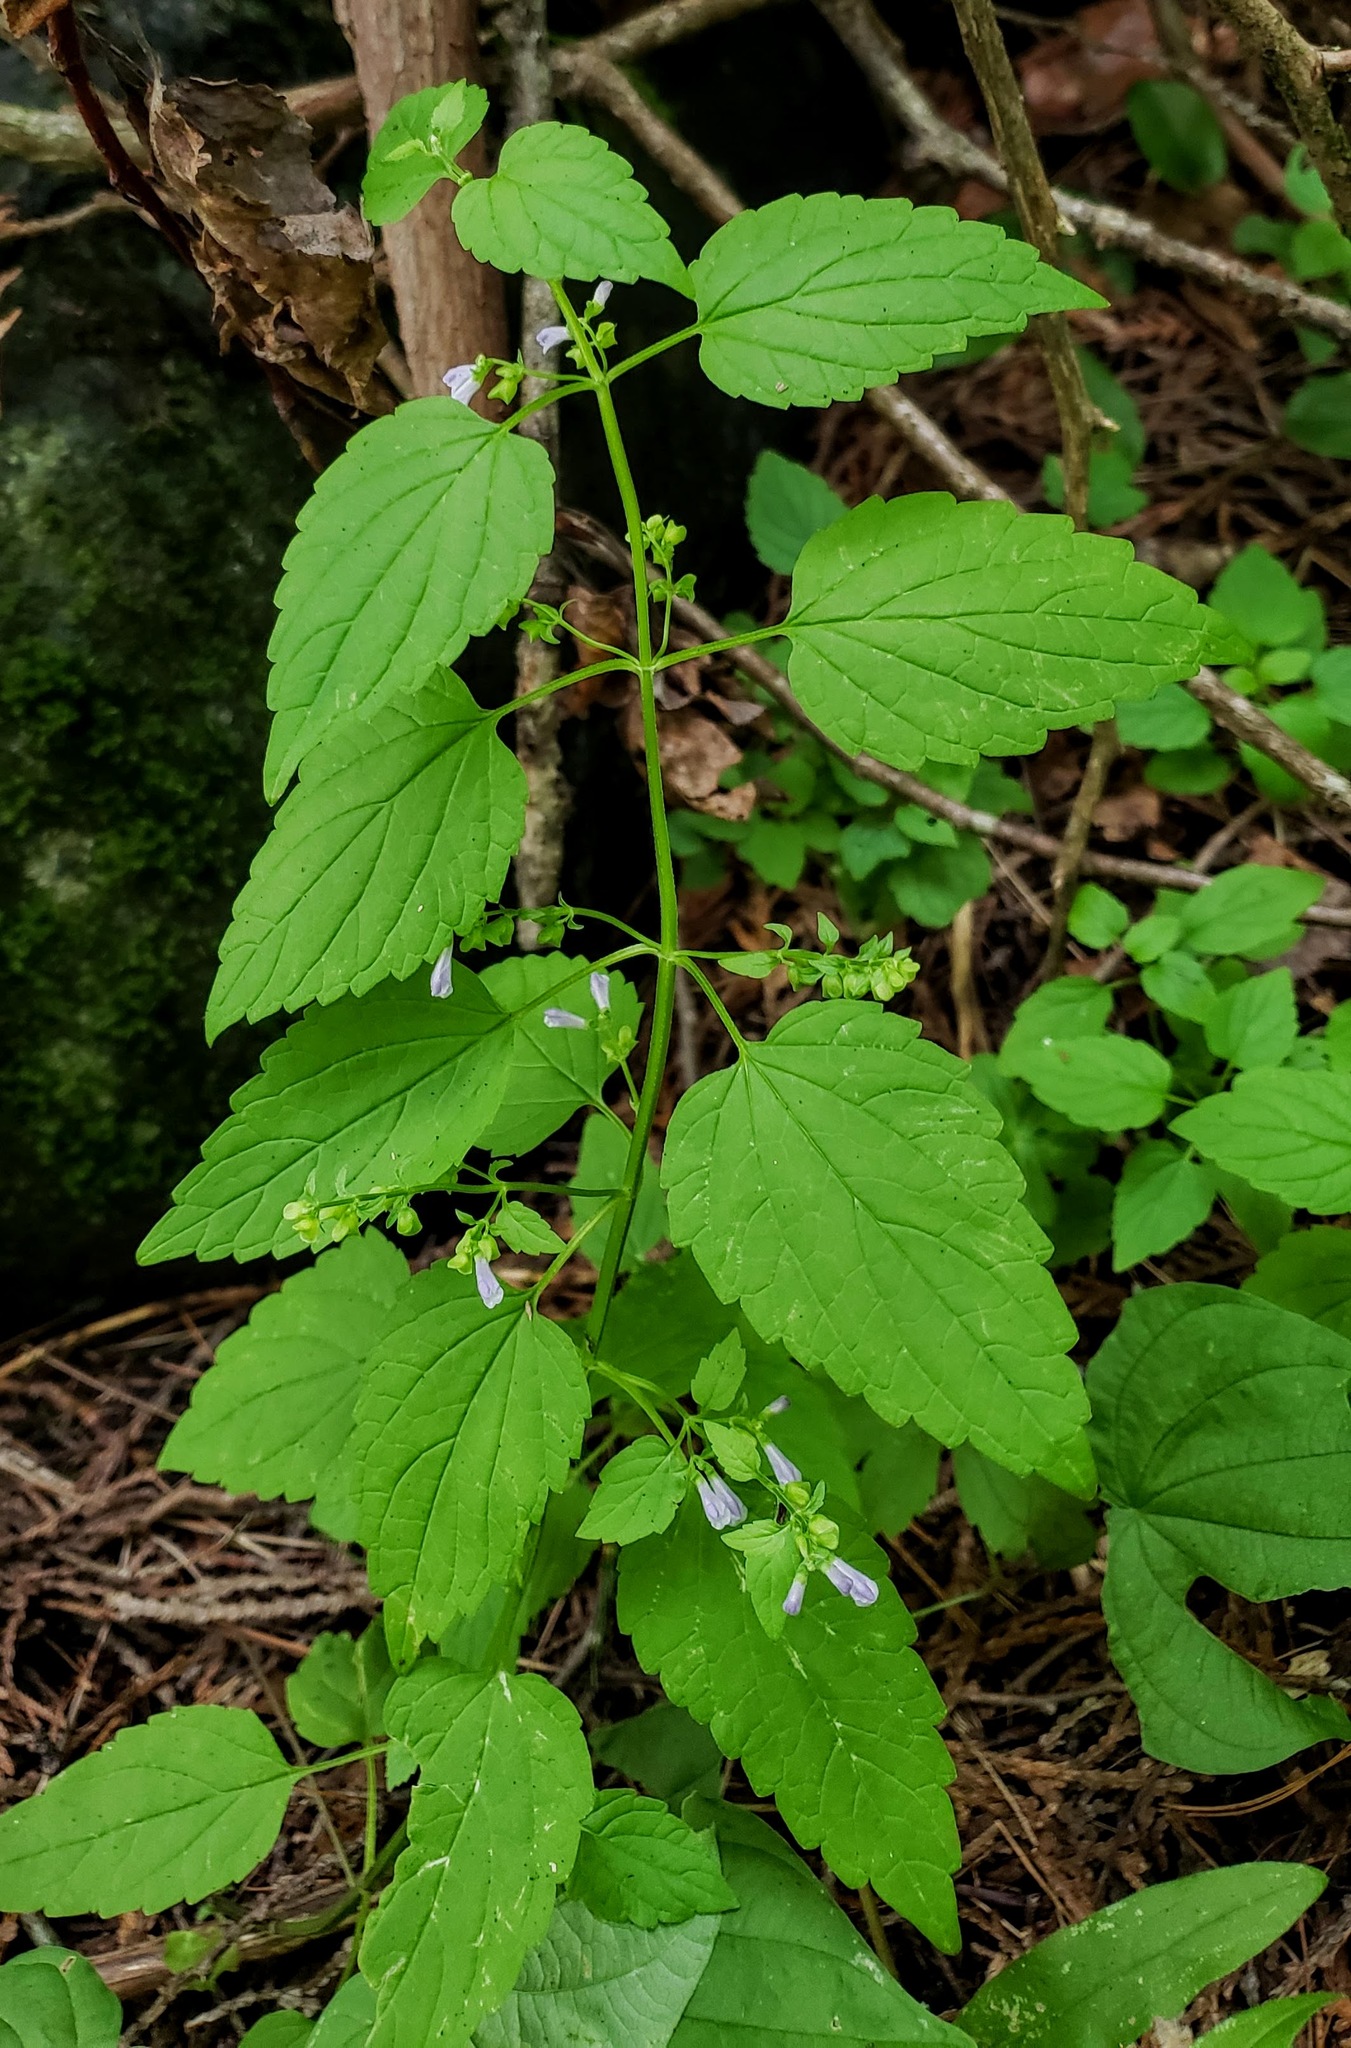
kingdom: Plantae
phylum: Tracheophyta
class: Magnoliopsida
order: Lamiales
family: Lamiaceae
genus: Scutellaria
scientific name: Scutellaria lateriflora
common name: Blue skullcap
